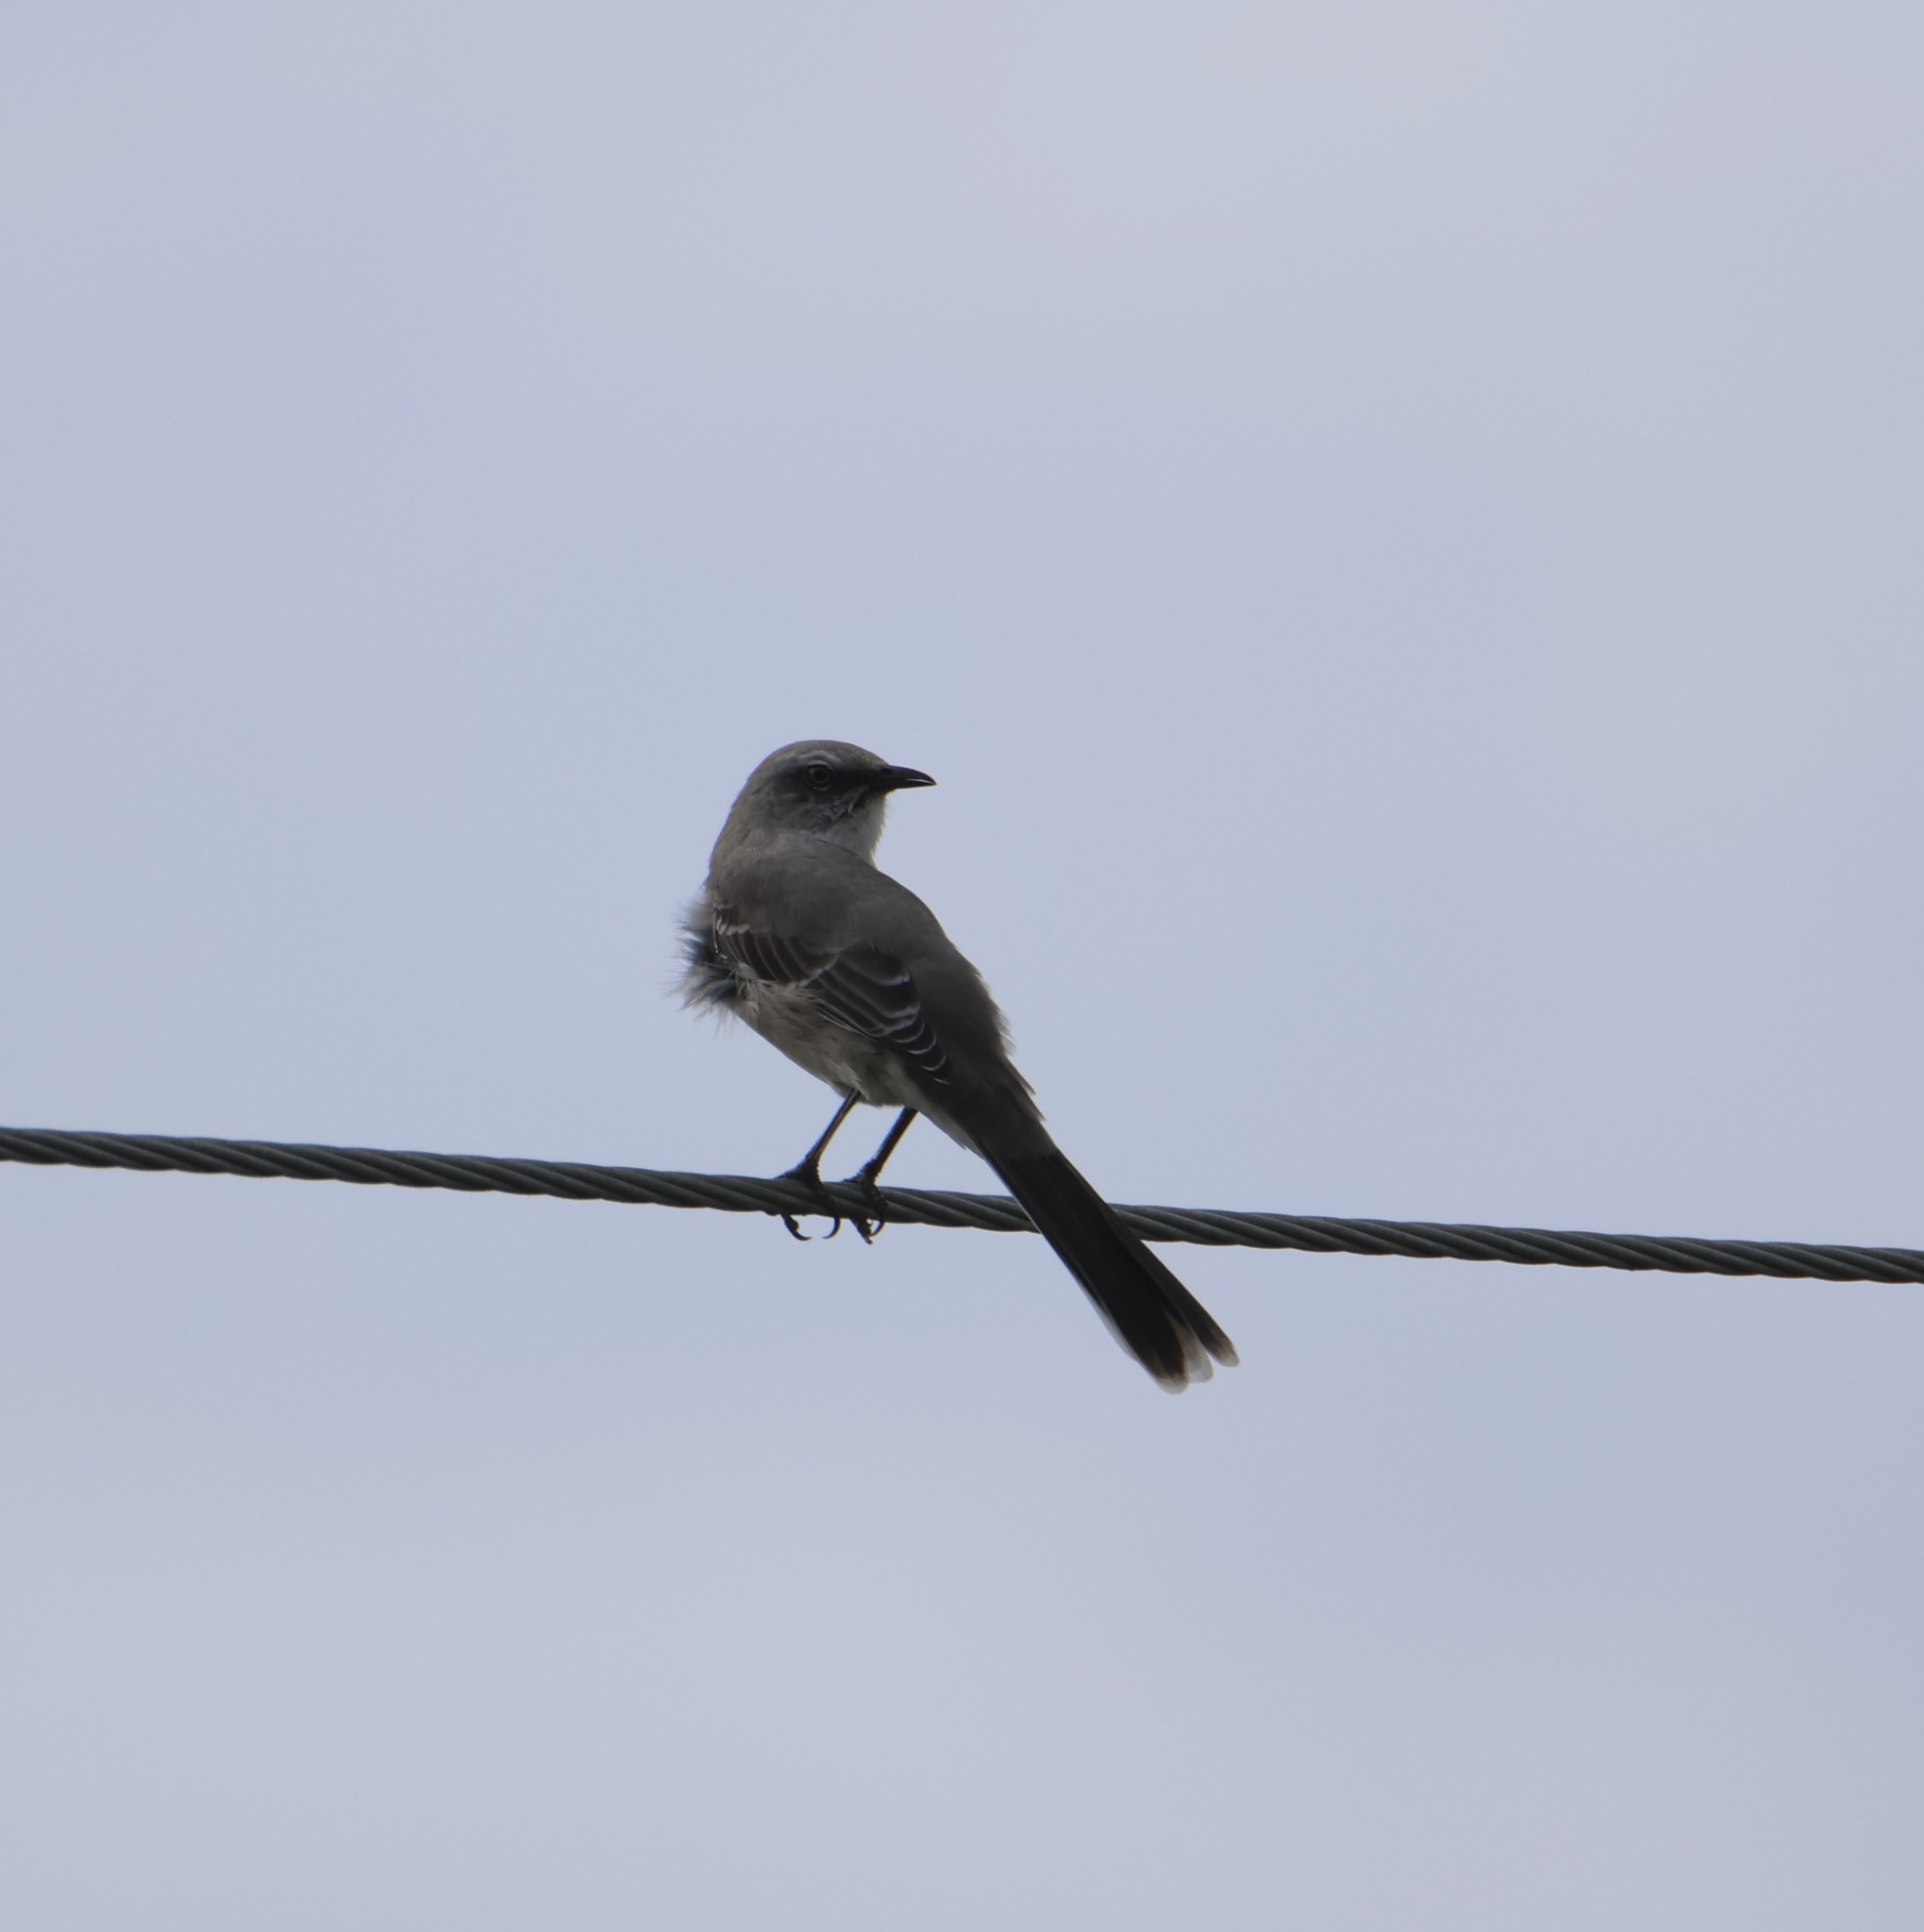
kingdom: Animalia
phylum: Chordata
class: Aves
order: Passeriformes
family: Mimidae
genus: Mimus
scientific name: Mimus gilvus
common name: Tropical mockingbird
